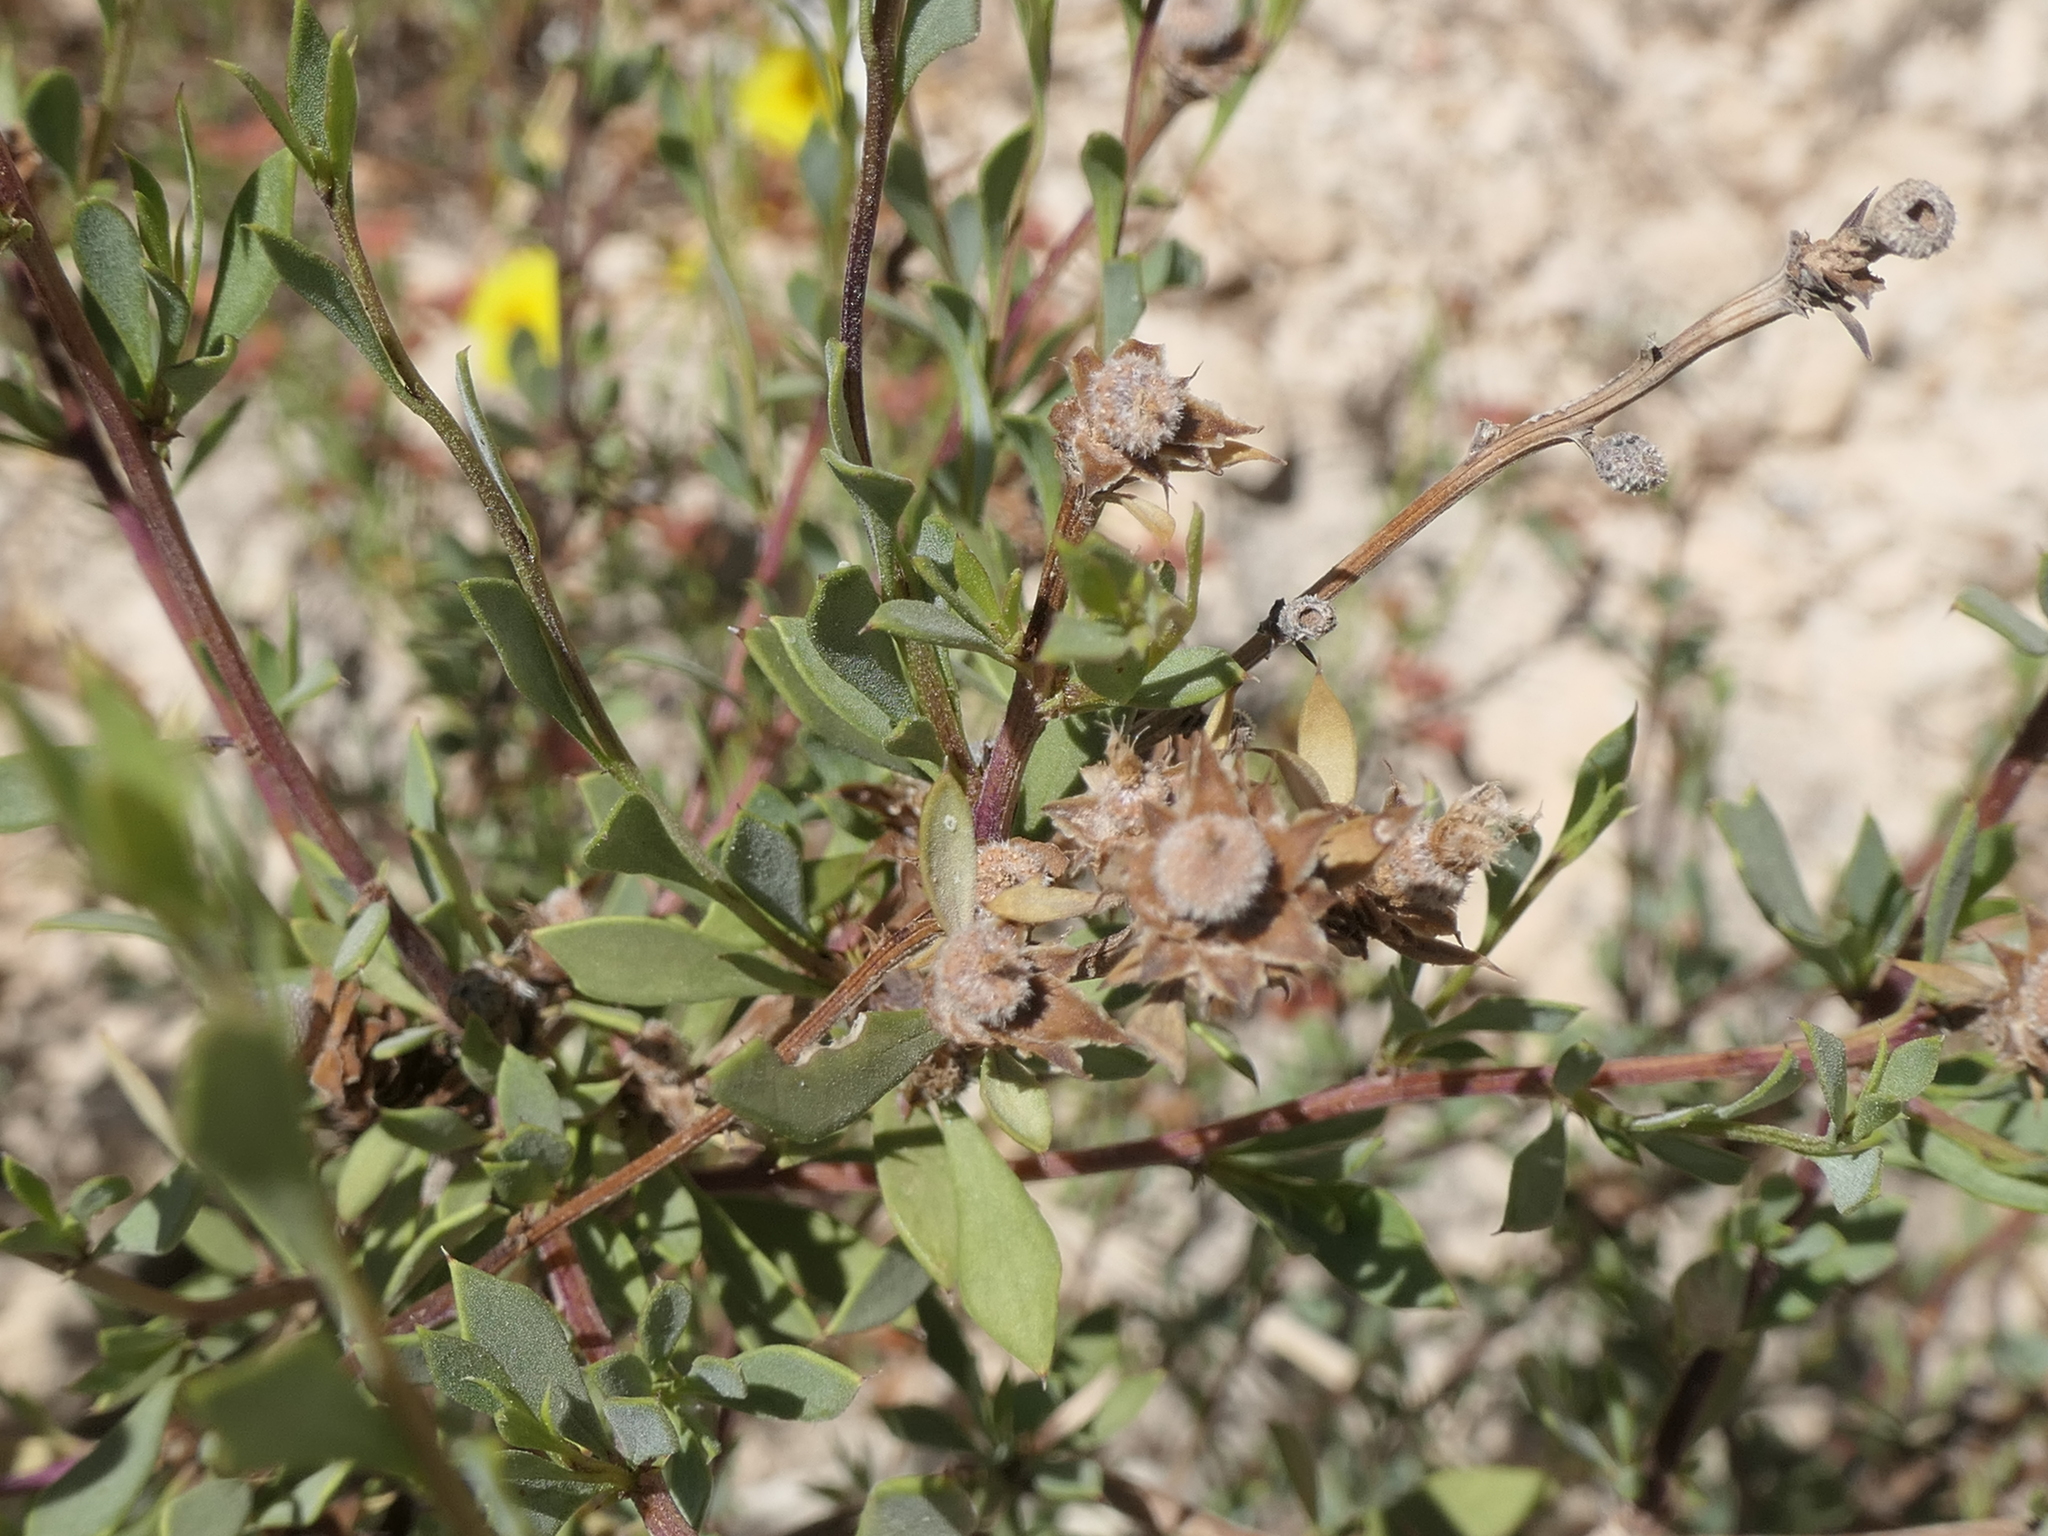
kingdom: Plantae
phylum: Tracheophyta
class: Magnoliopsida
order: Lamiales
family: Plantaginaceae
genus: Globularia
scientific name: Globularia alypum
